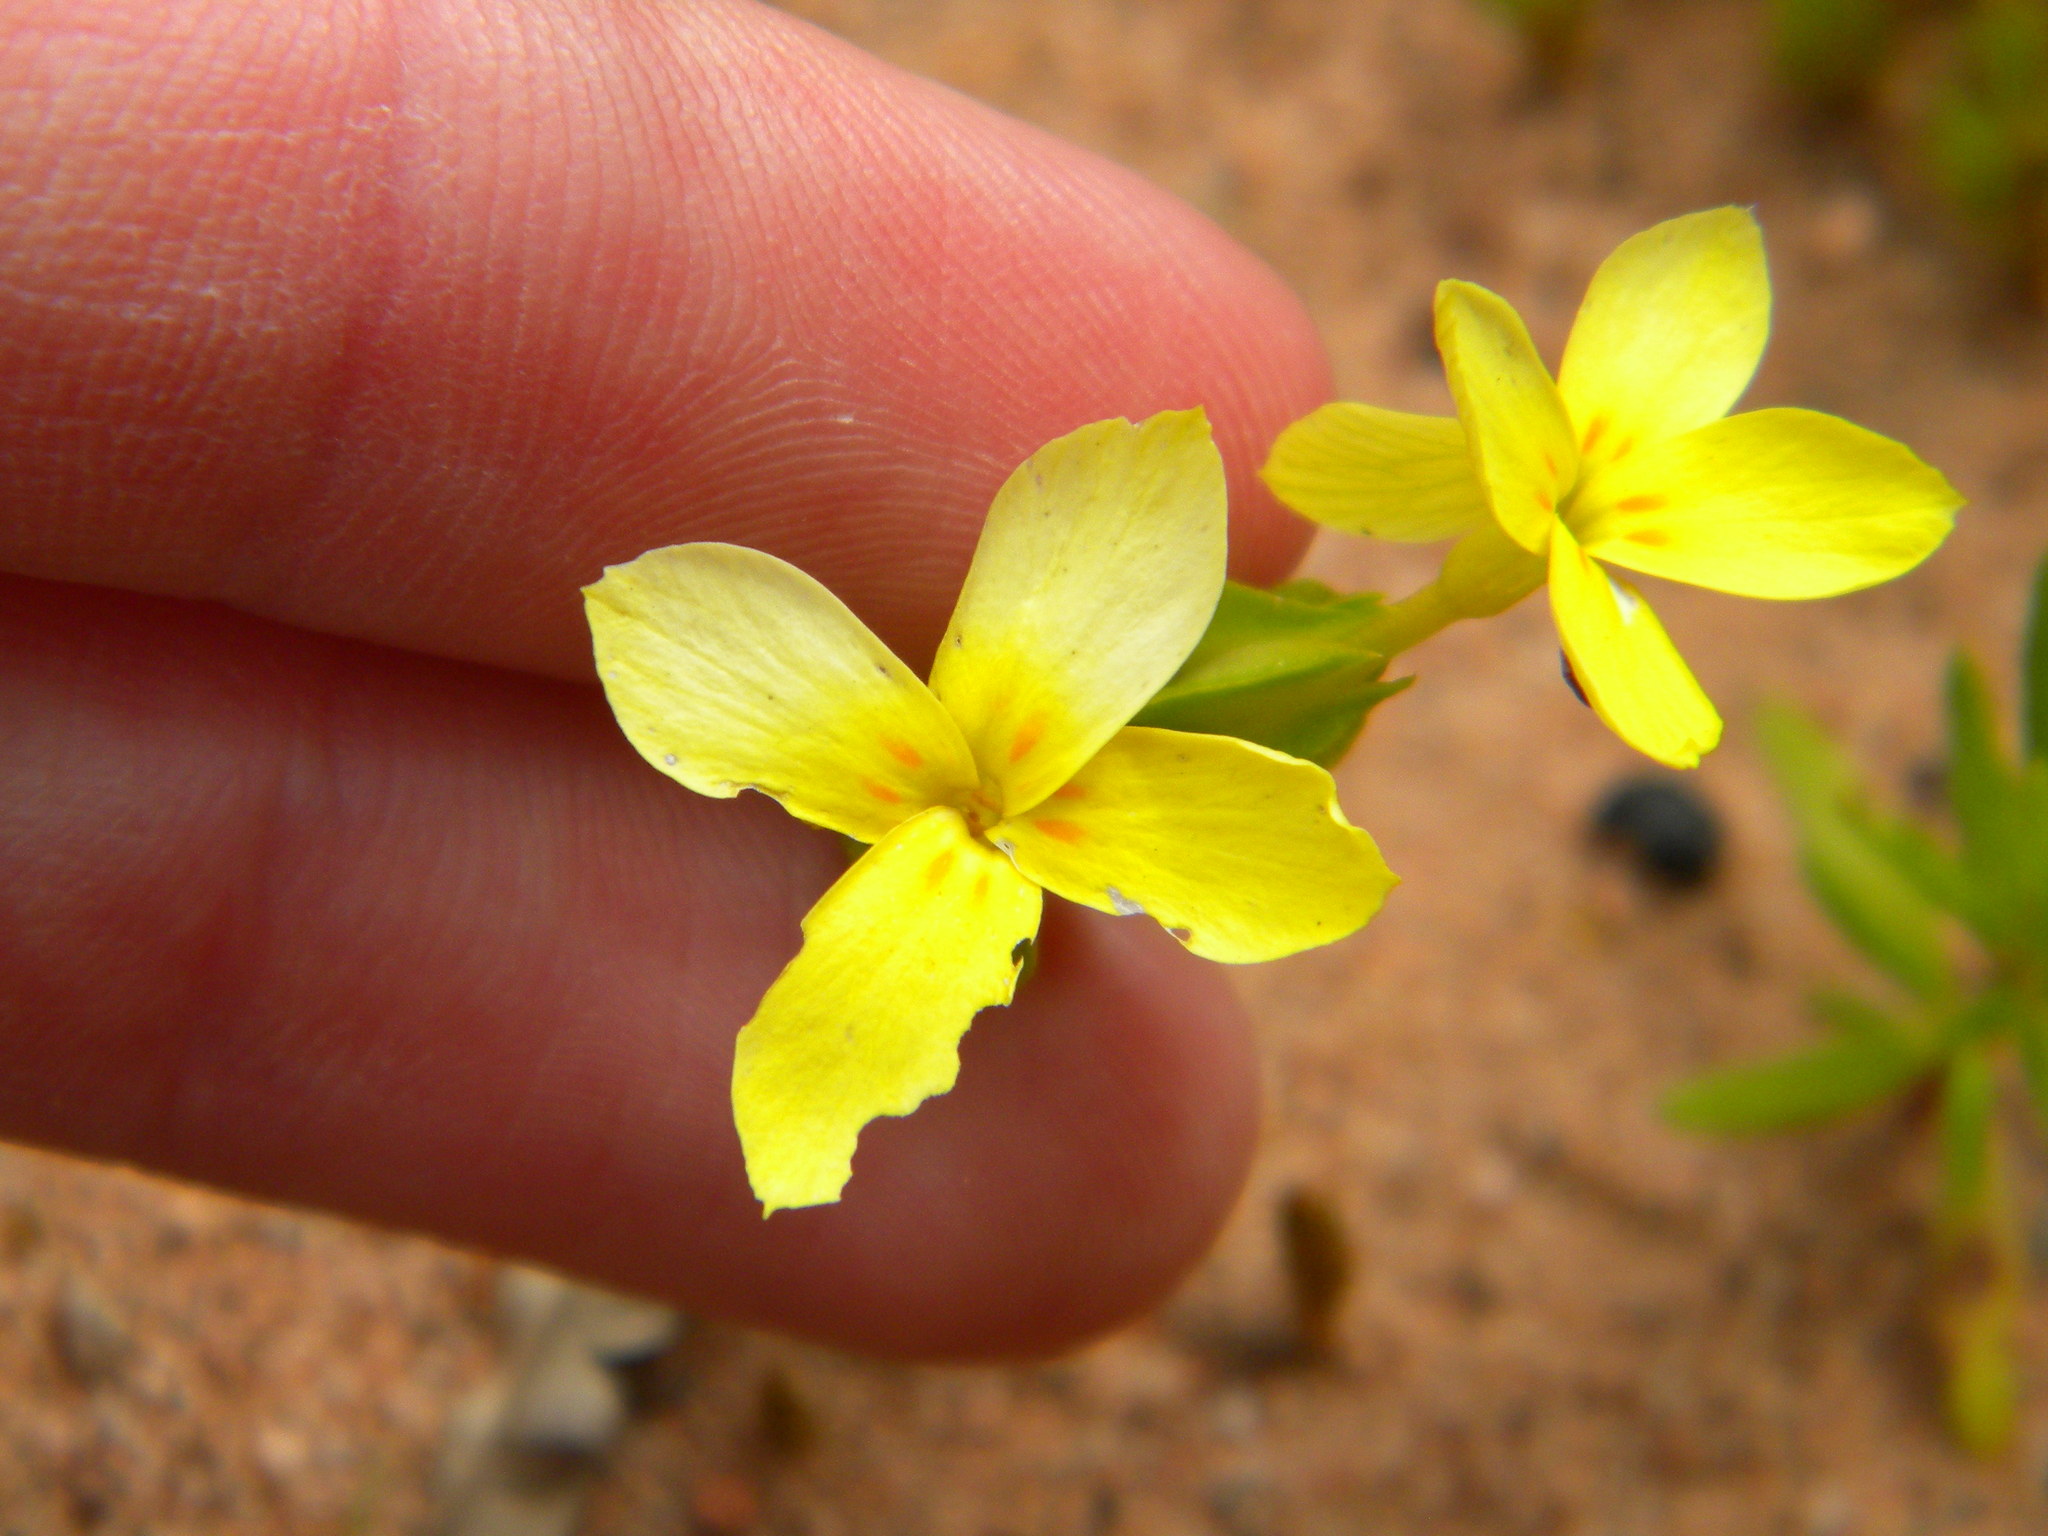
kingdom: Plantae
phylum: Tracheophyta
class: Magnoliopsida
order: Gentianales
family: Gentianaceae
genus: Sebaea
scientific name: Sebaea exacoides
